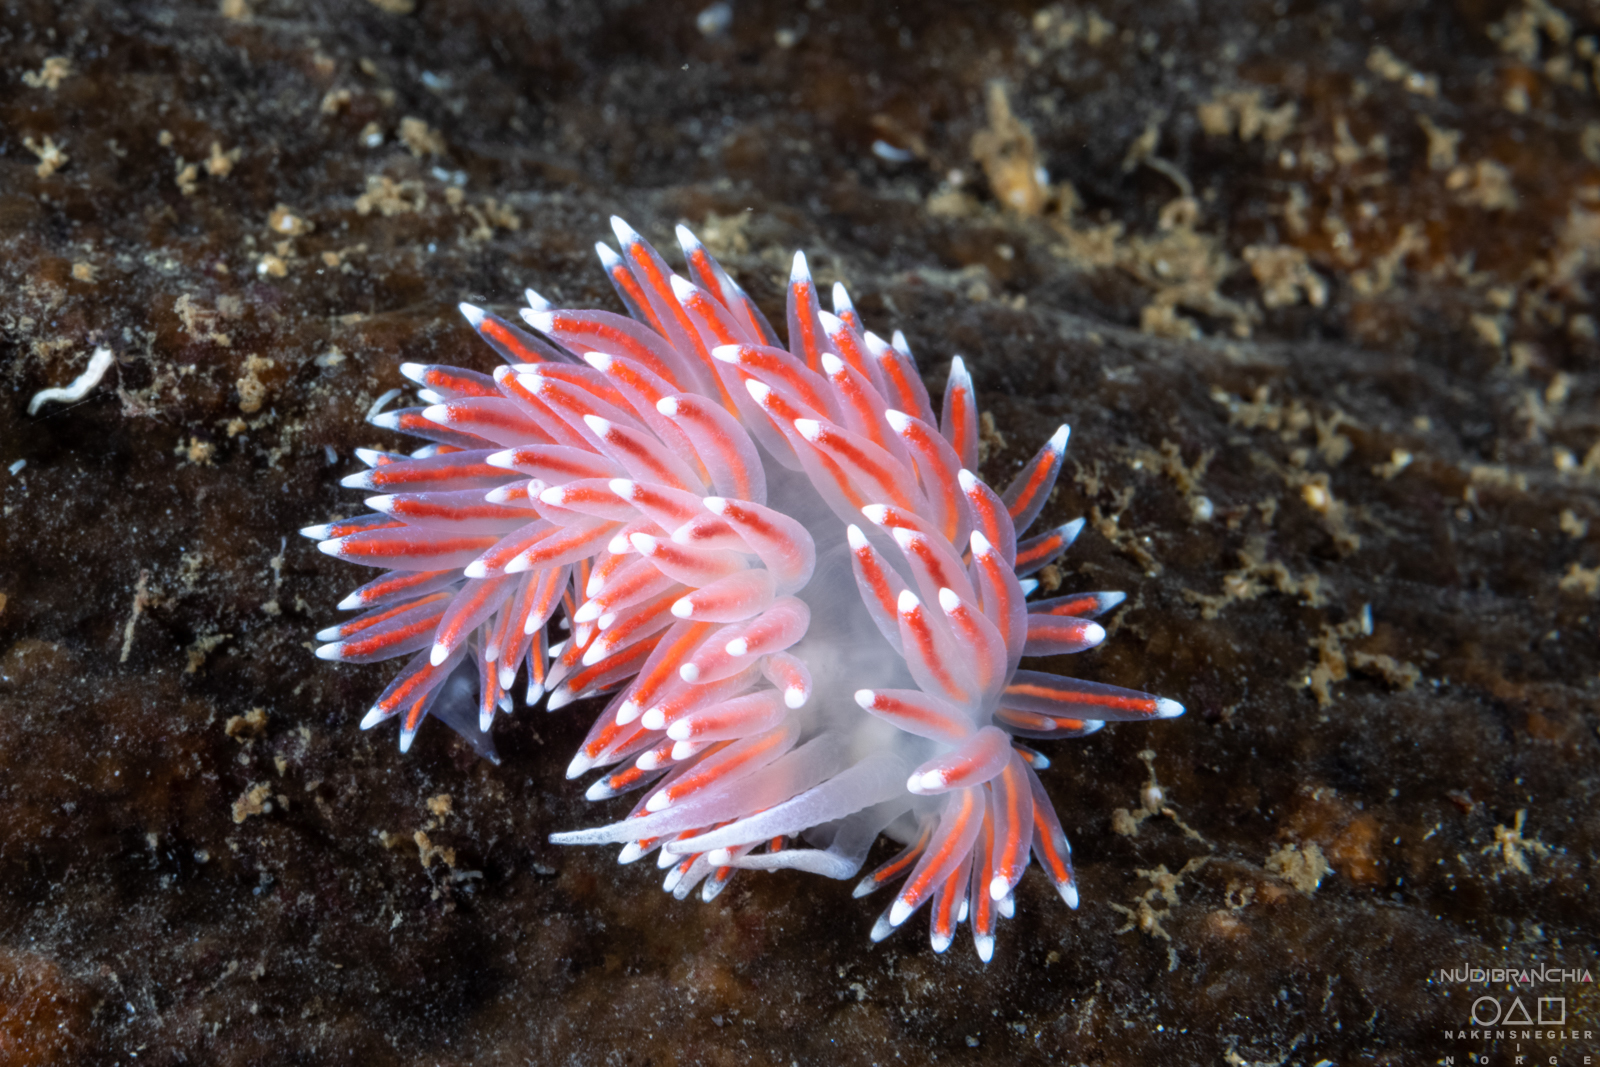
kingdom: Animalia
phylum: Mollusca
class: Gastropoda
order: Nudibranchia
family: Flabellinidae
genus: Carronella
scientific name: Carronella pellucida
